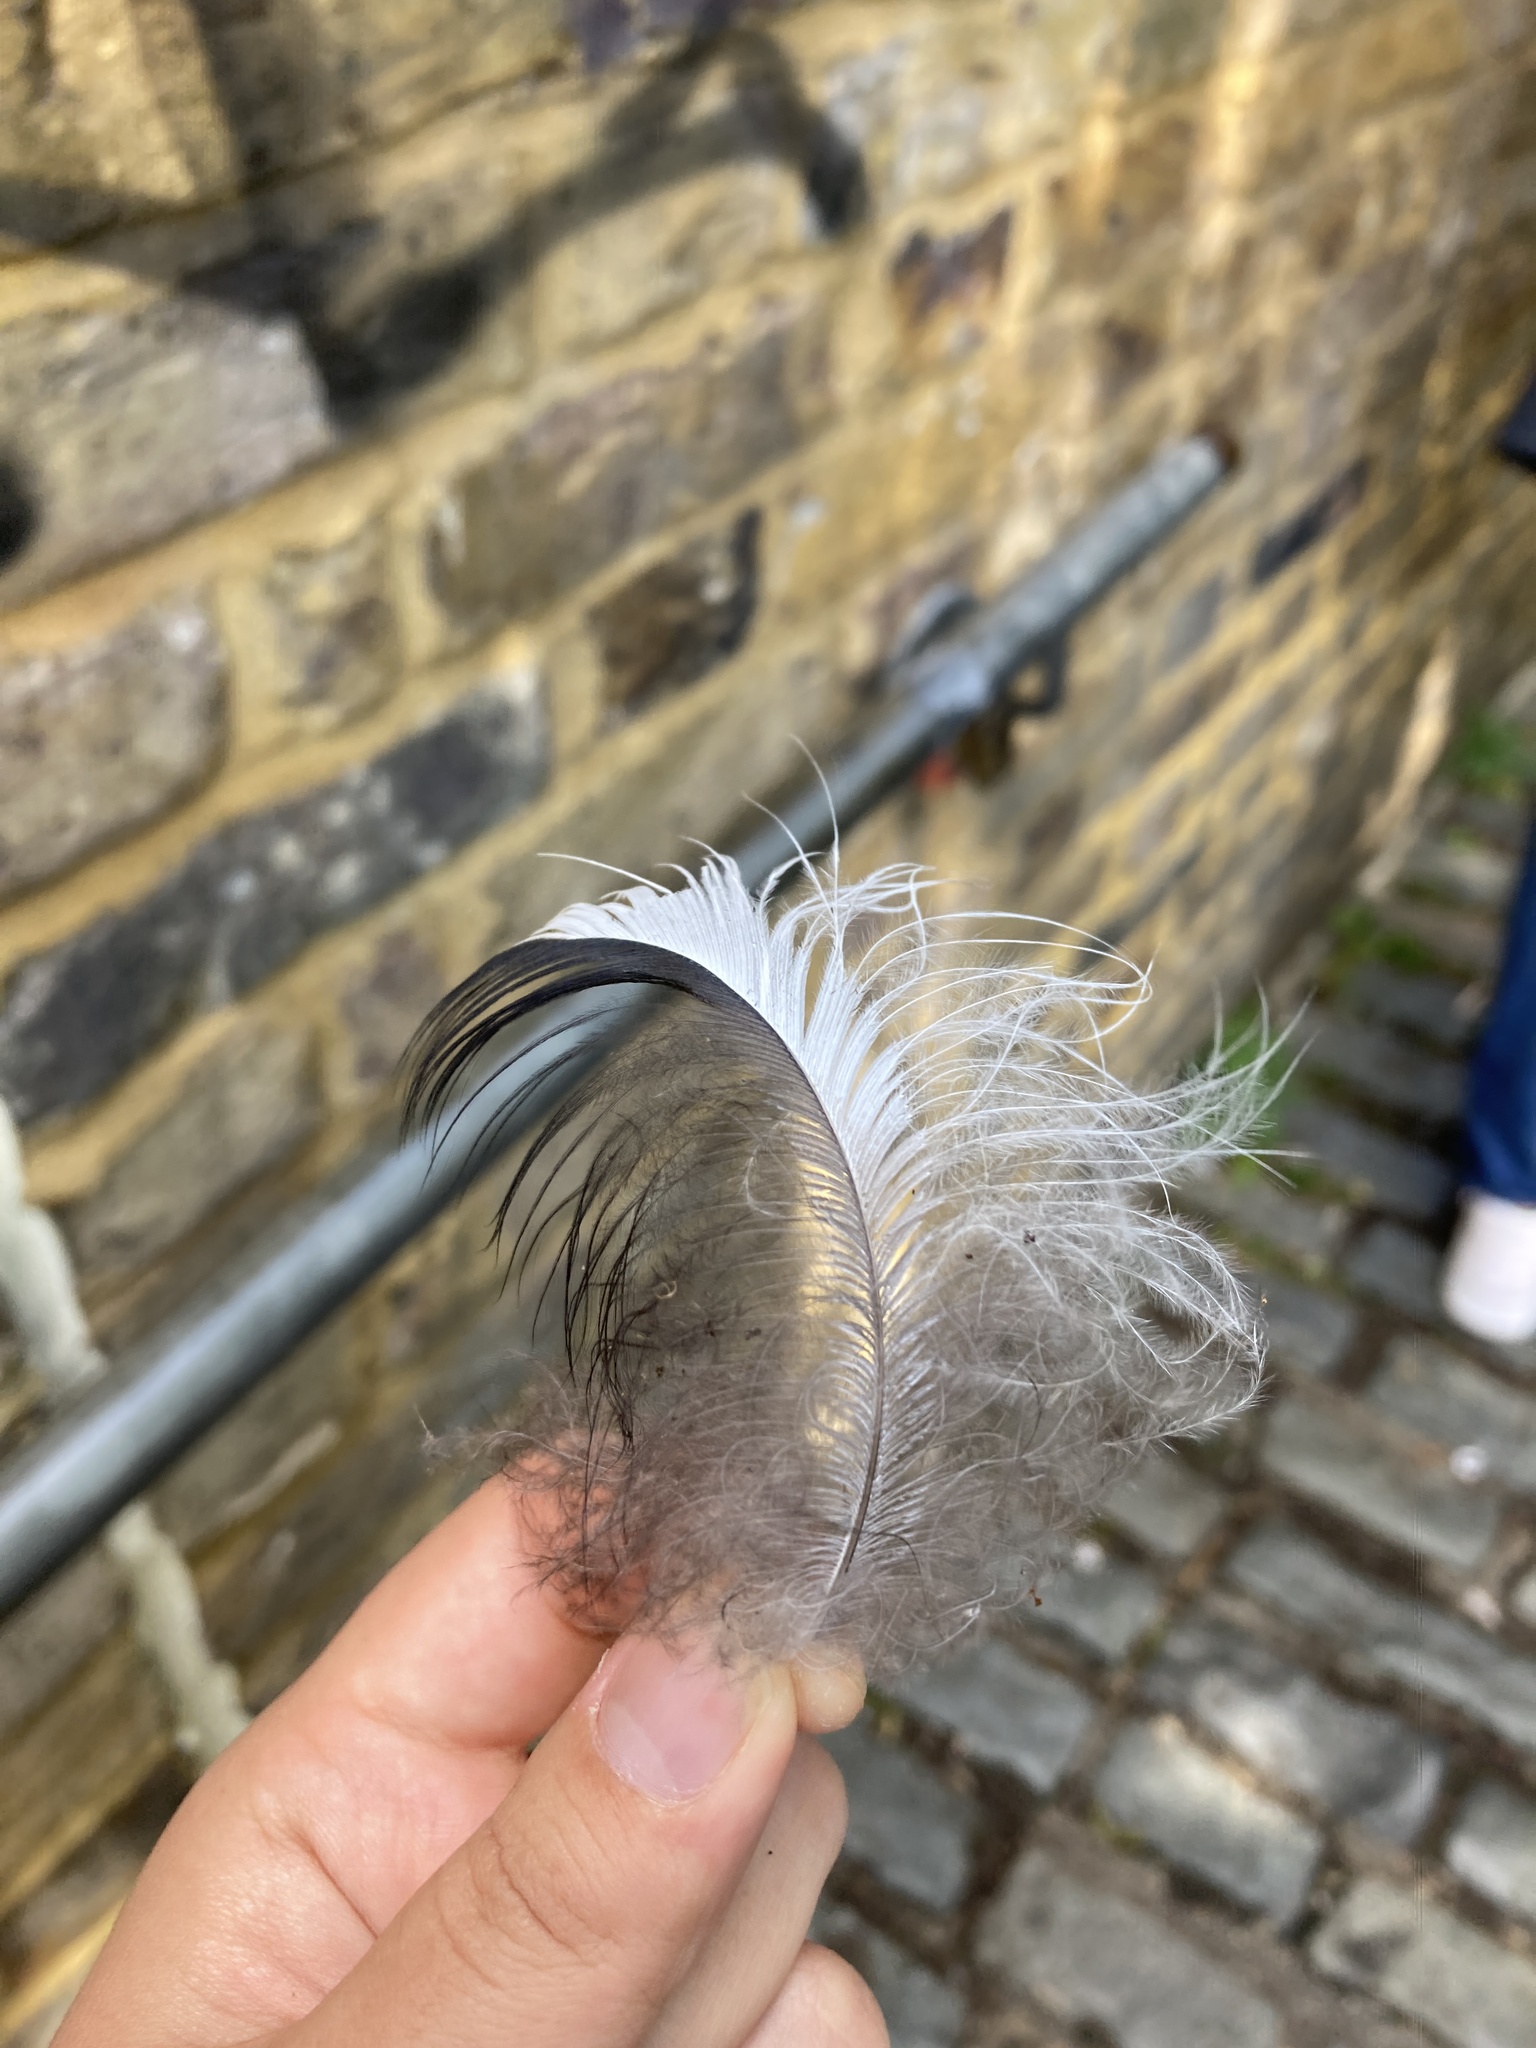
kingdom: Animalia
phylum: Chordata
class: Aves
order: Pelecaniformes
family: Ardeidae
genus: Ardea
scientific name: Ardea cinerea
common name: Grey heron
